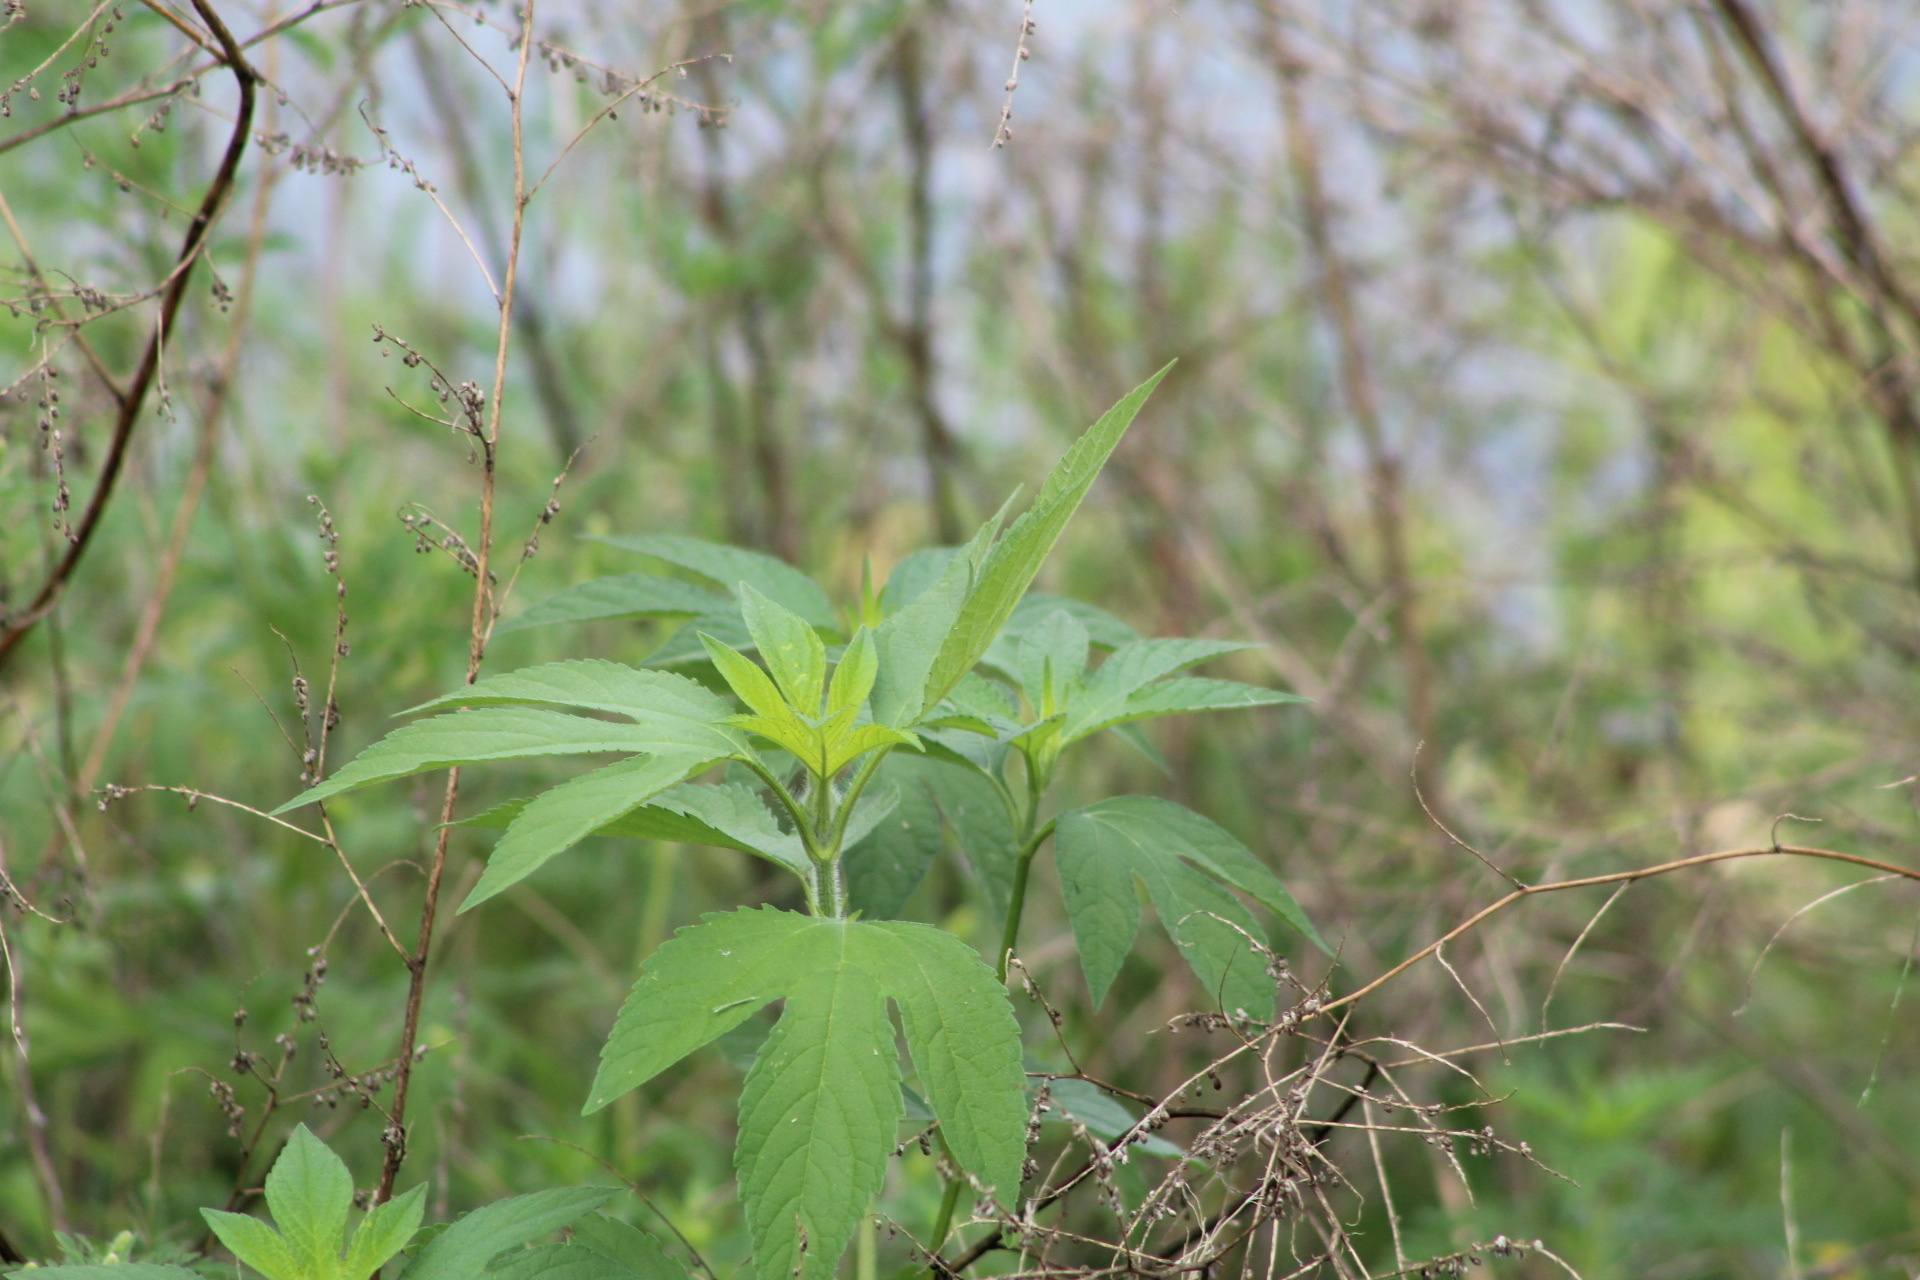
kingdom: Plantae
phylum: Tracheophyta
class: Magnoliopsida
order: Asterales
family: Asteraceae
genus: Ambrosia
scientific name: Ambrosia trifida
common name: Giant ragweed
